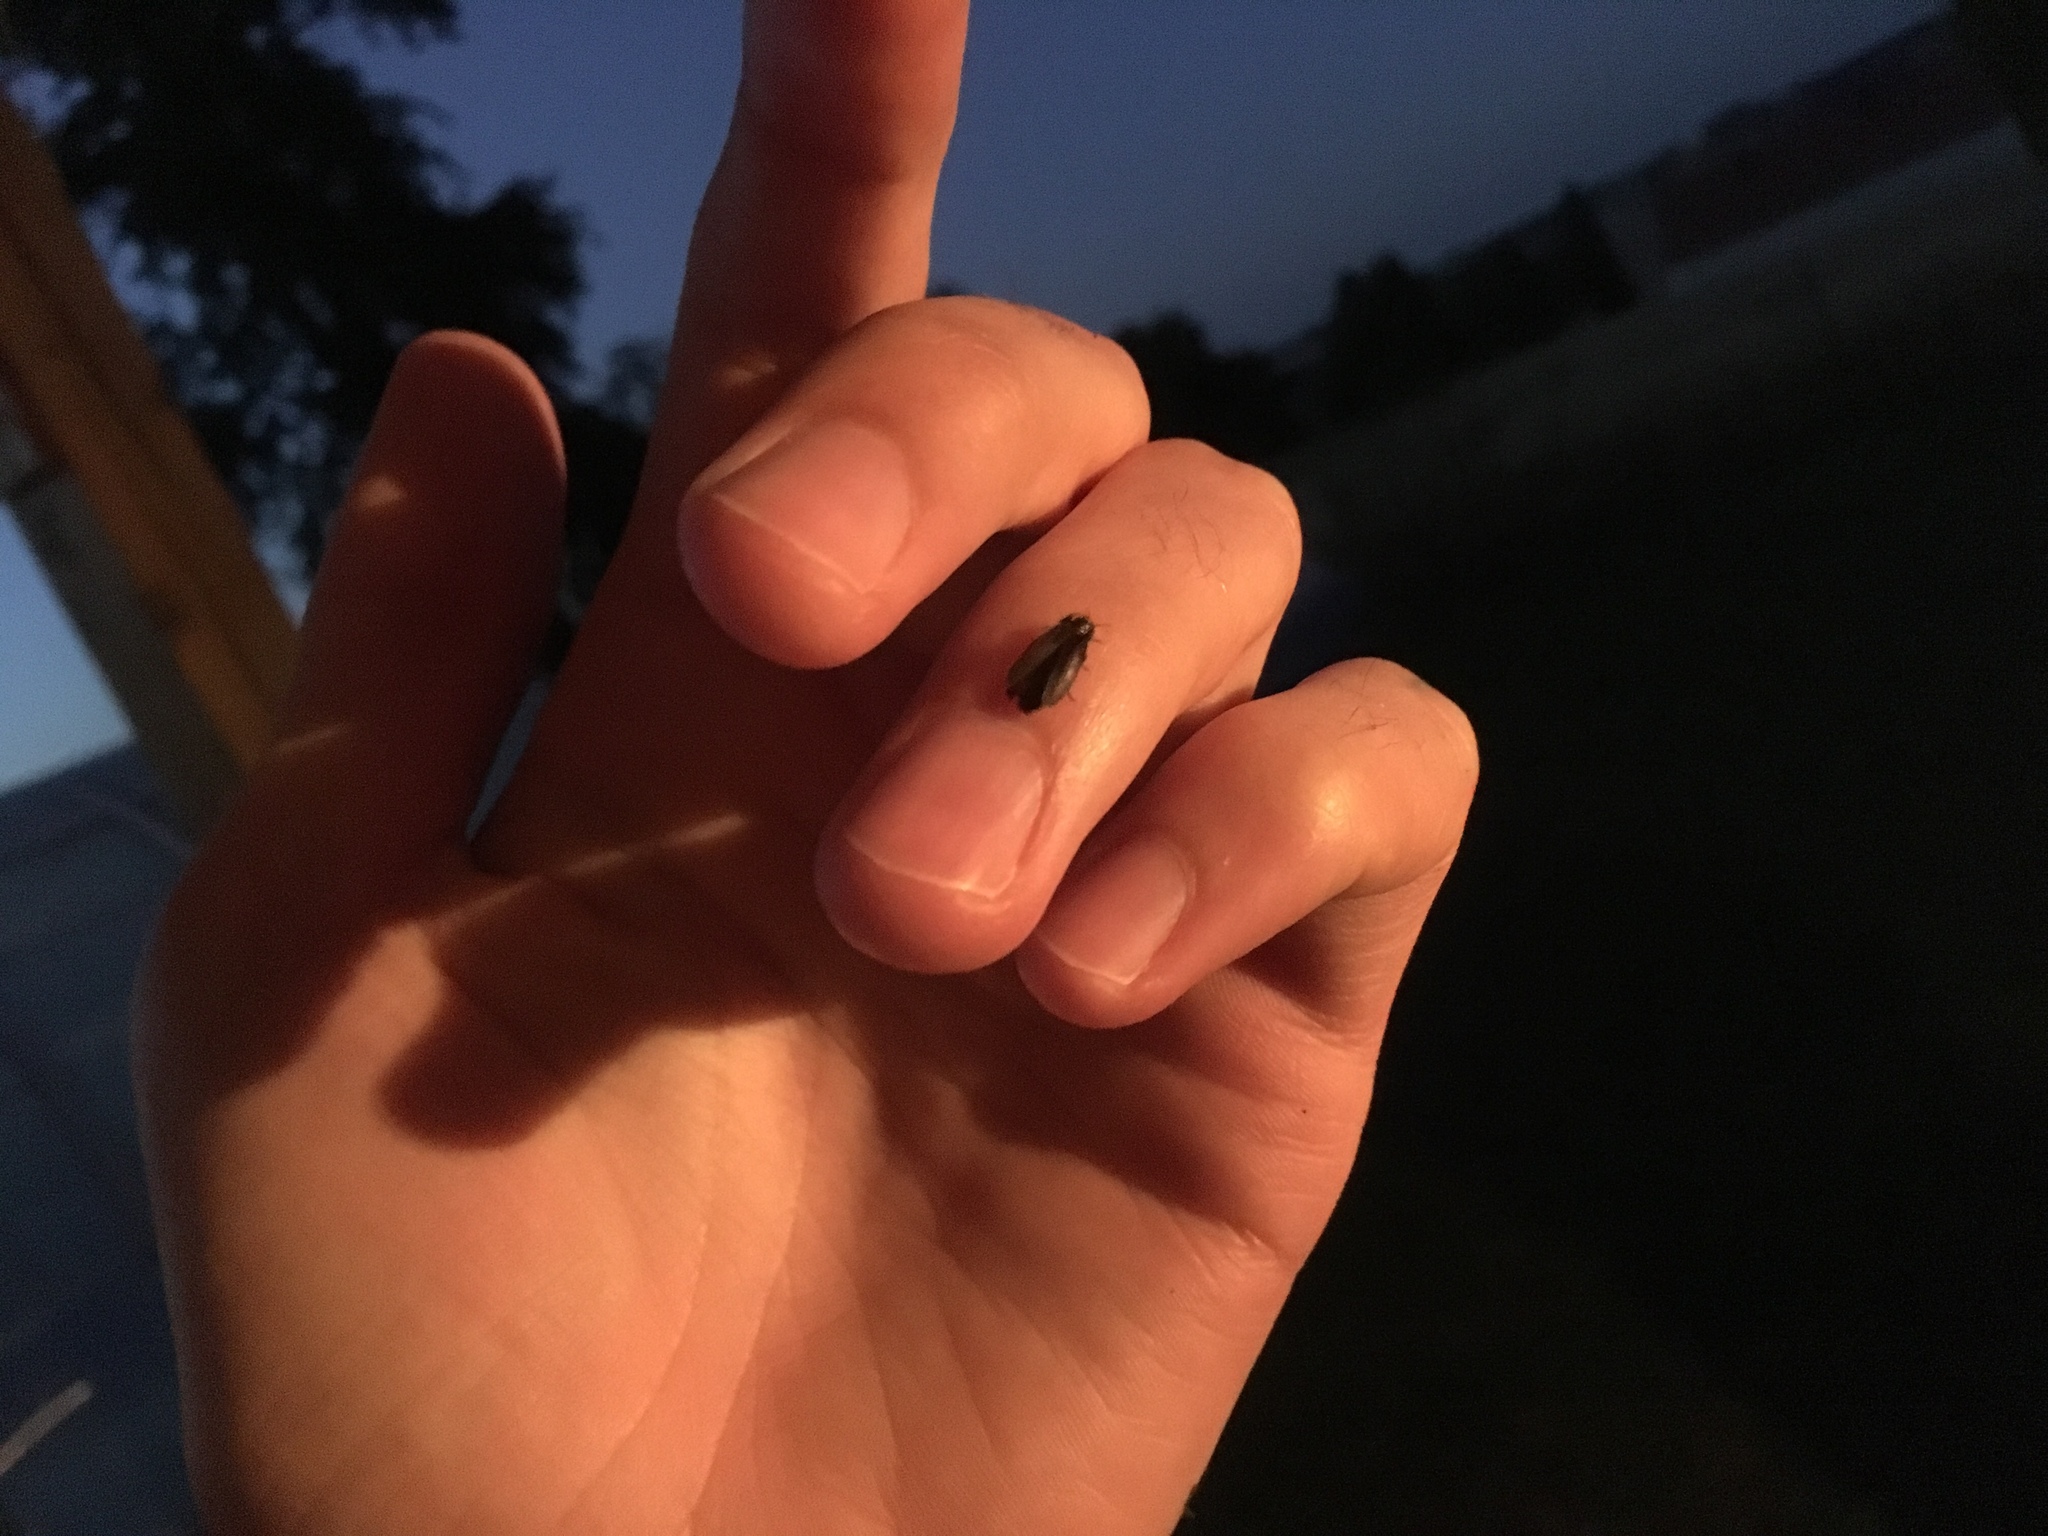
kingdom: Animalia
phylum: Arthropoda
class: Insecta
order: Coleoptera
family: Lampyridae
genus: Lamprohiza
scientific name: Lamprohiza splendidula
